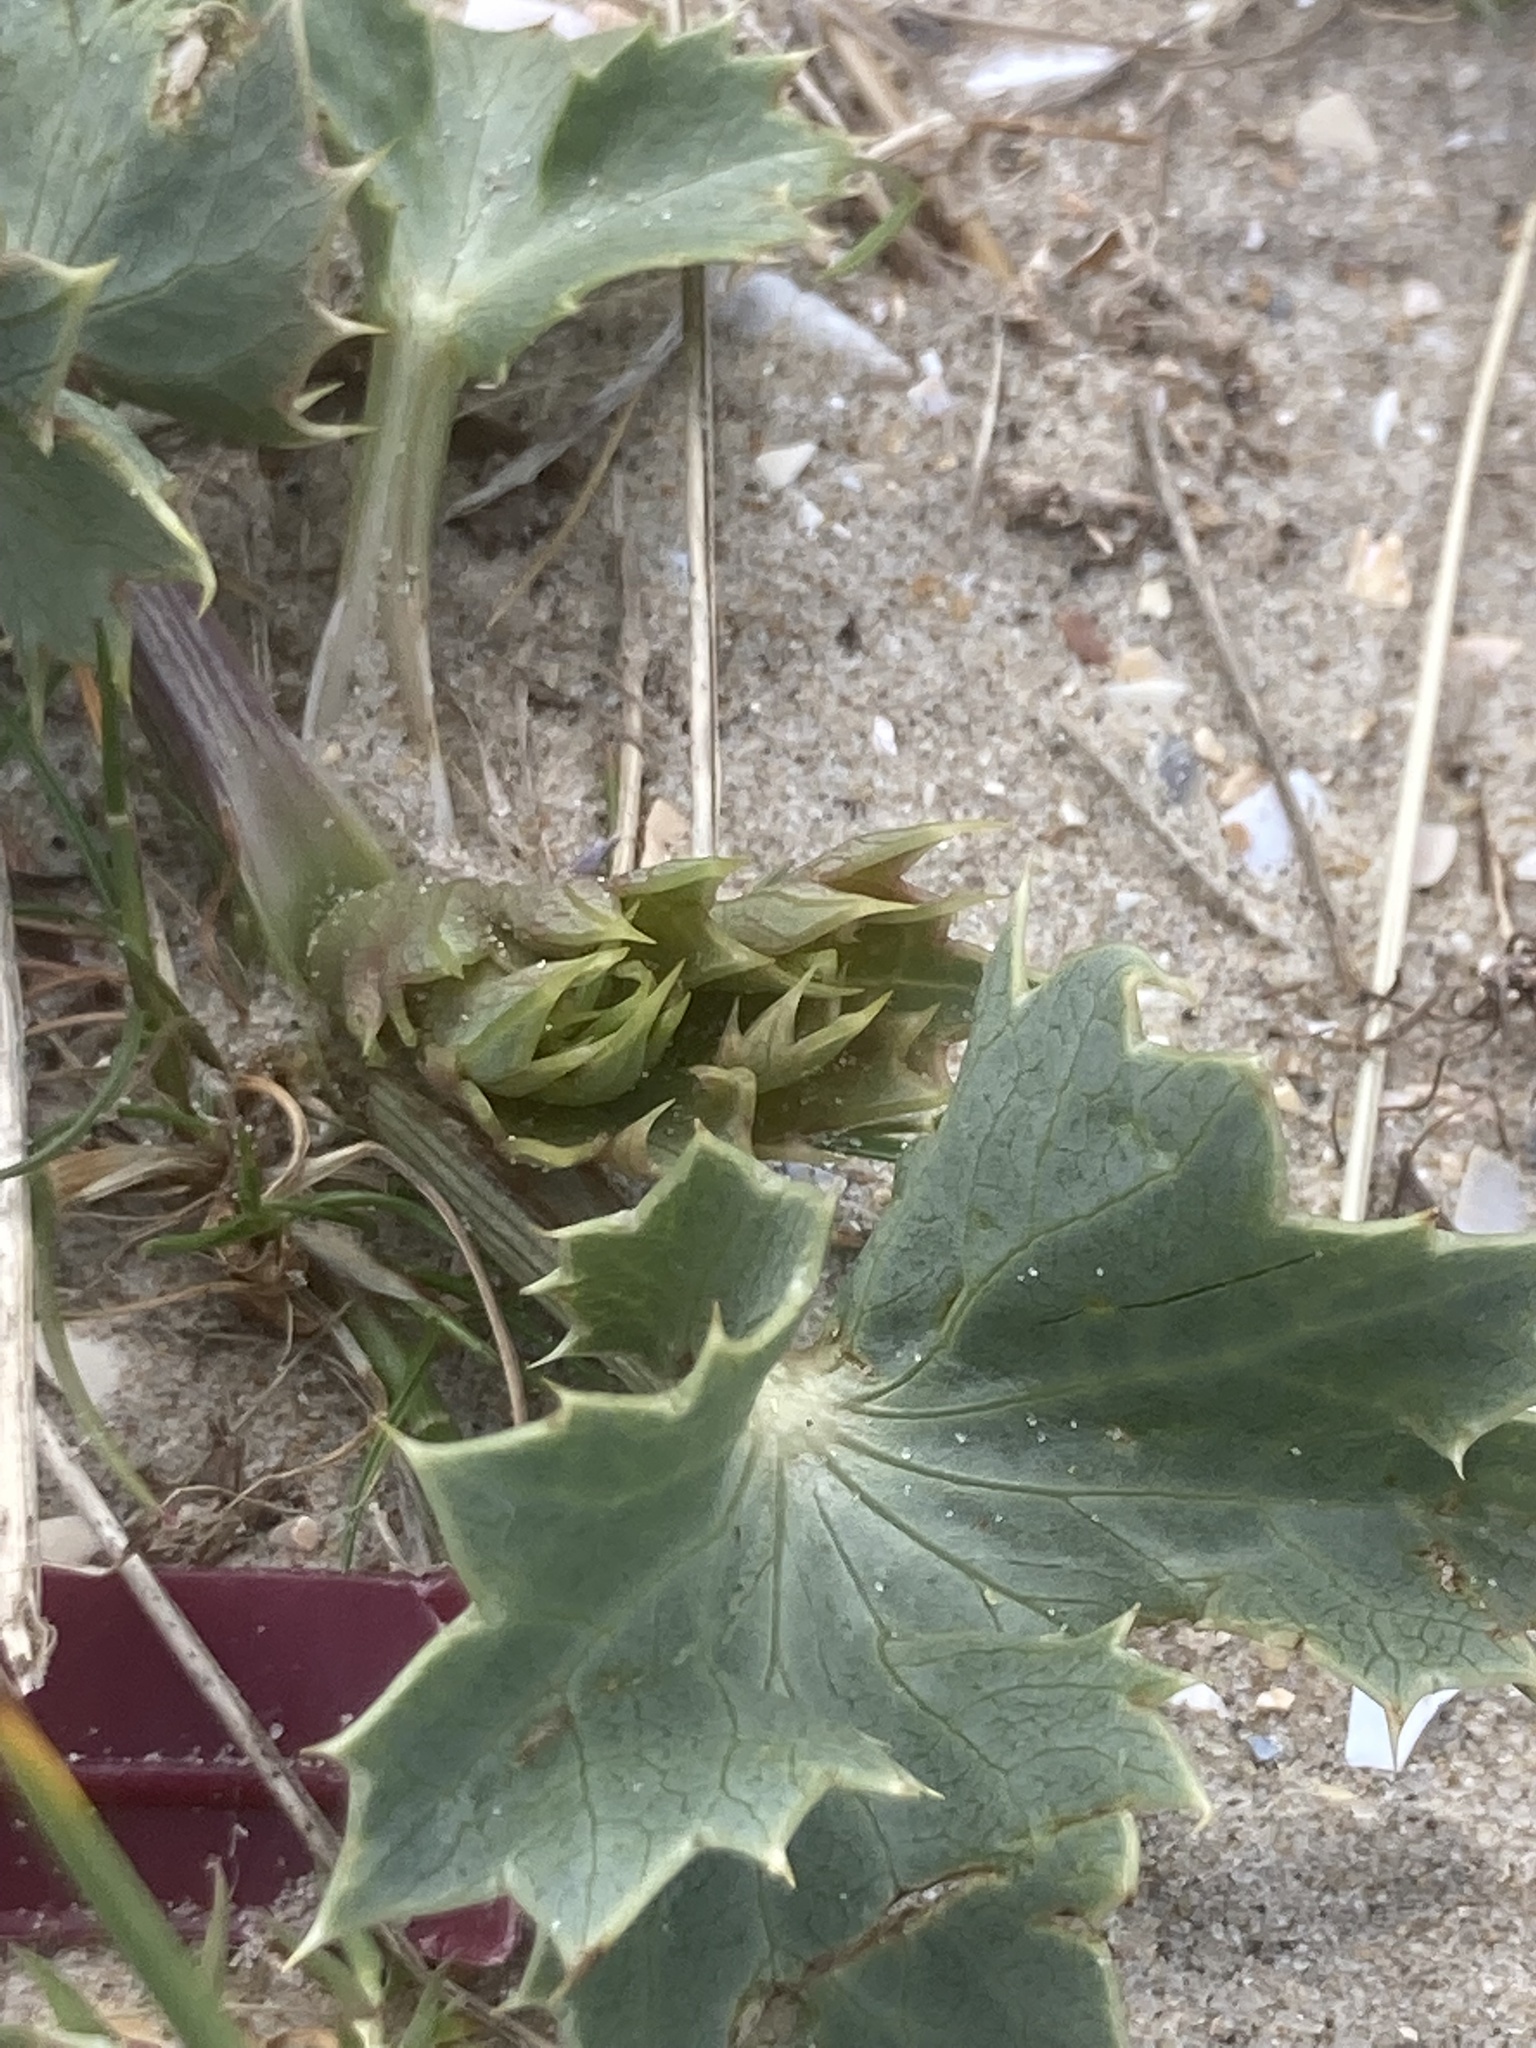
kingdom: Plantae
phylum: Tracheophyta
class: Magnoliopsida
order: Apiales
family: Apiaceae
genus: Eryngium
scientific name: Eryngium maritimum
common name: Sea-holly
